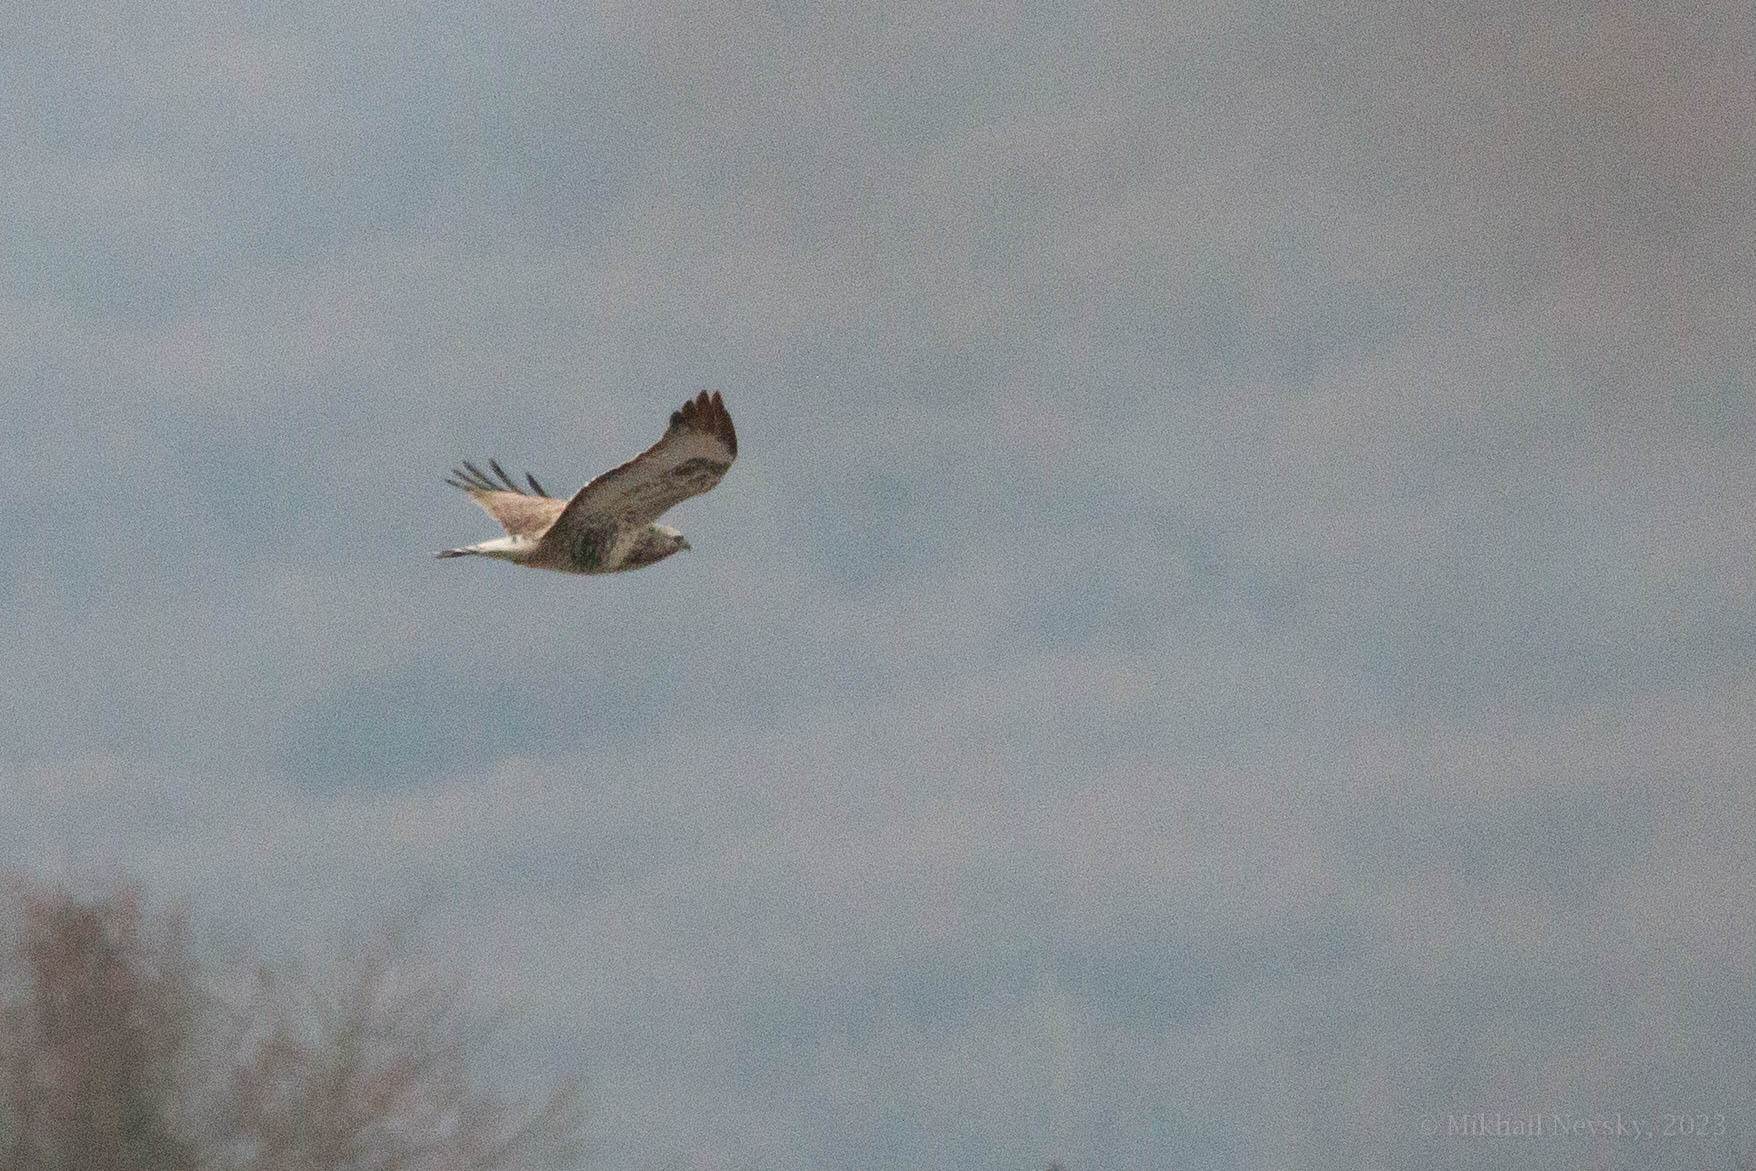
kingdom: Animalia
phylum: Chordata
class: Aves
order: Accipitriformes
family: Accipitridae
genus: Buteo
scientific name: Buteo lagopus
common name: Rough-legged buzzard
